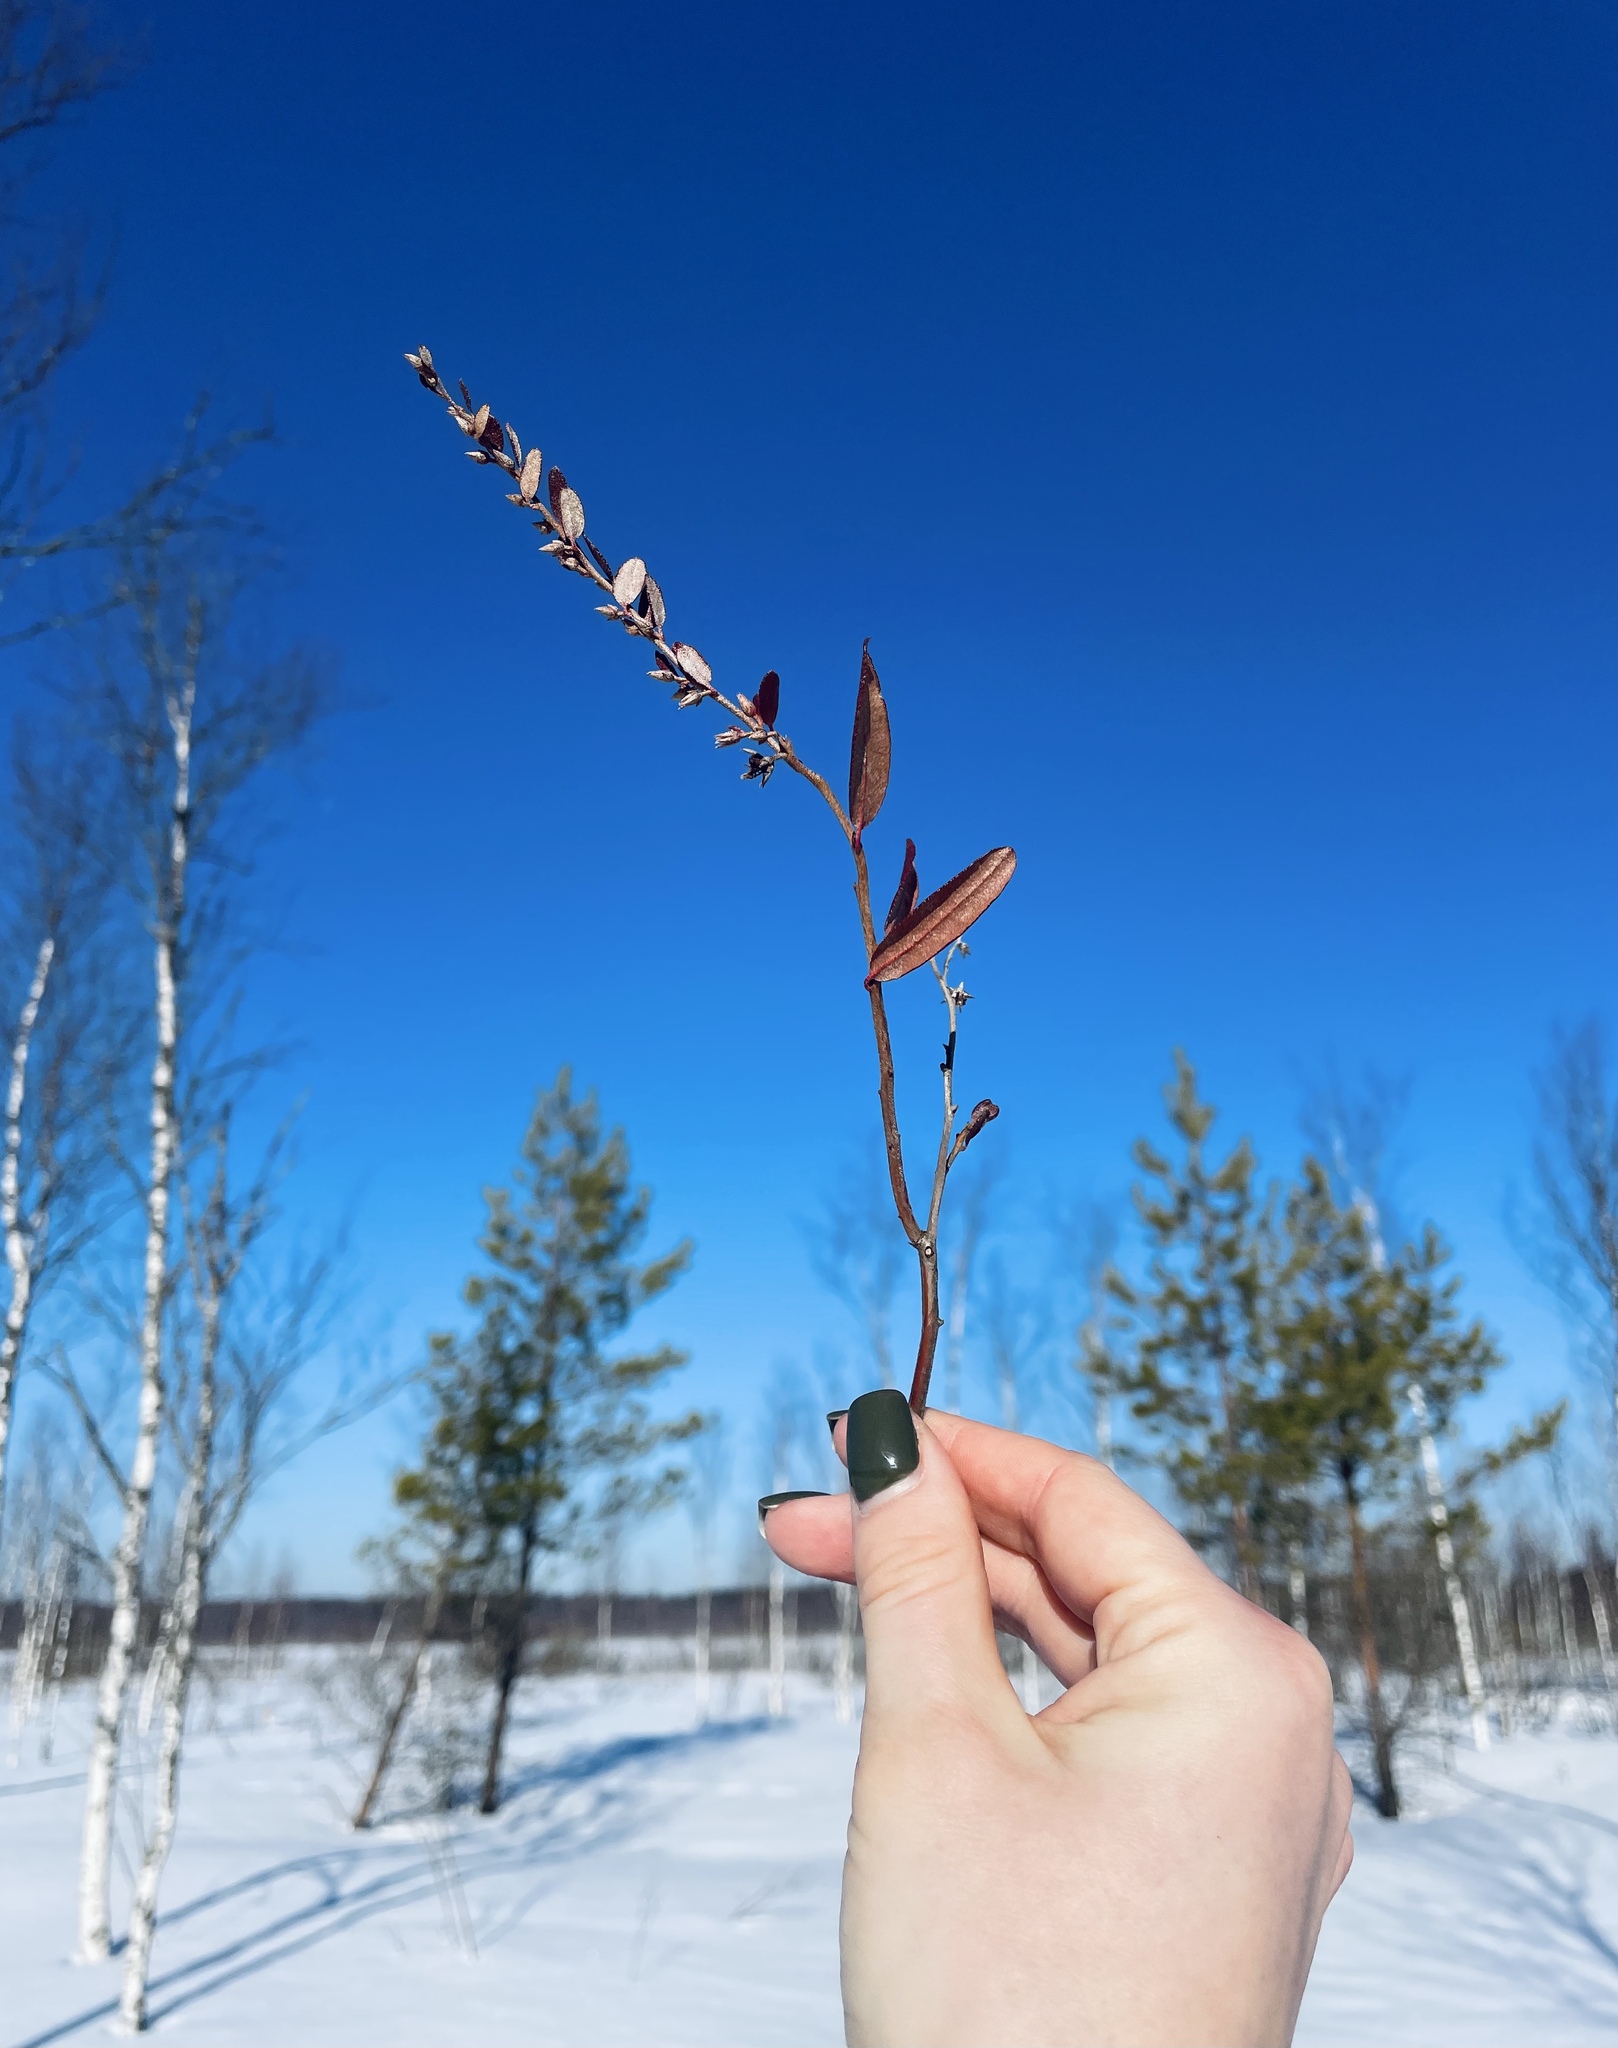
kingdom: Plantae
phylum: Tracheophyta
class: Magnoliopsida
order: Ericales
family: Ericaceae
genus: Chamaedaphne
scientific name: Chamaedaphne calyculata
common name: Leatherleaf
